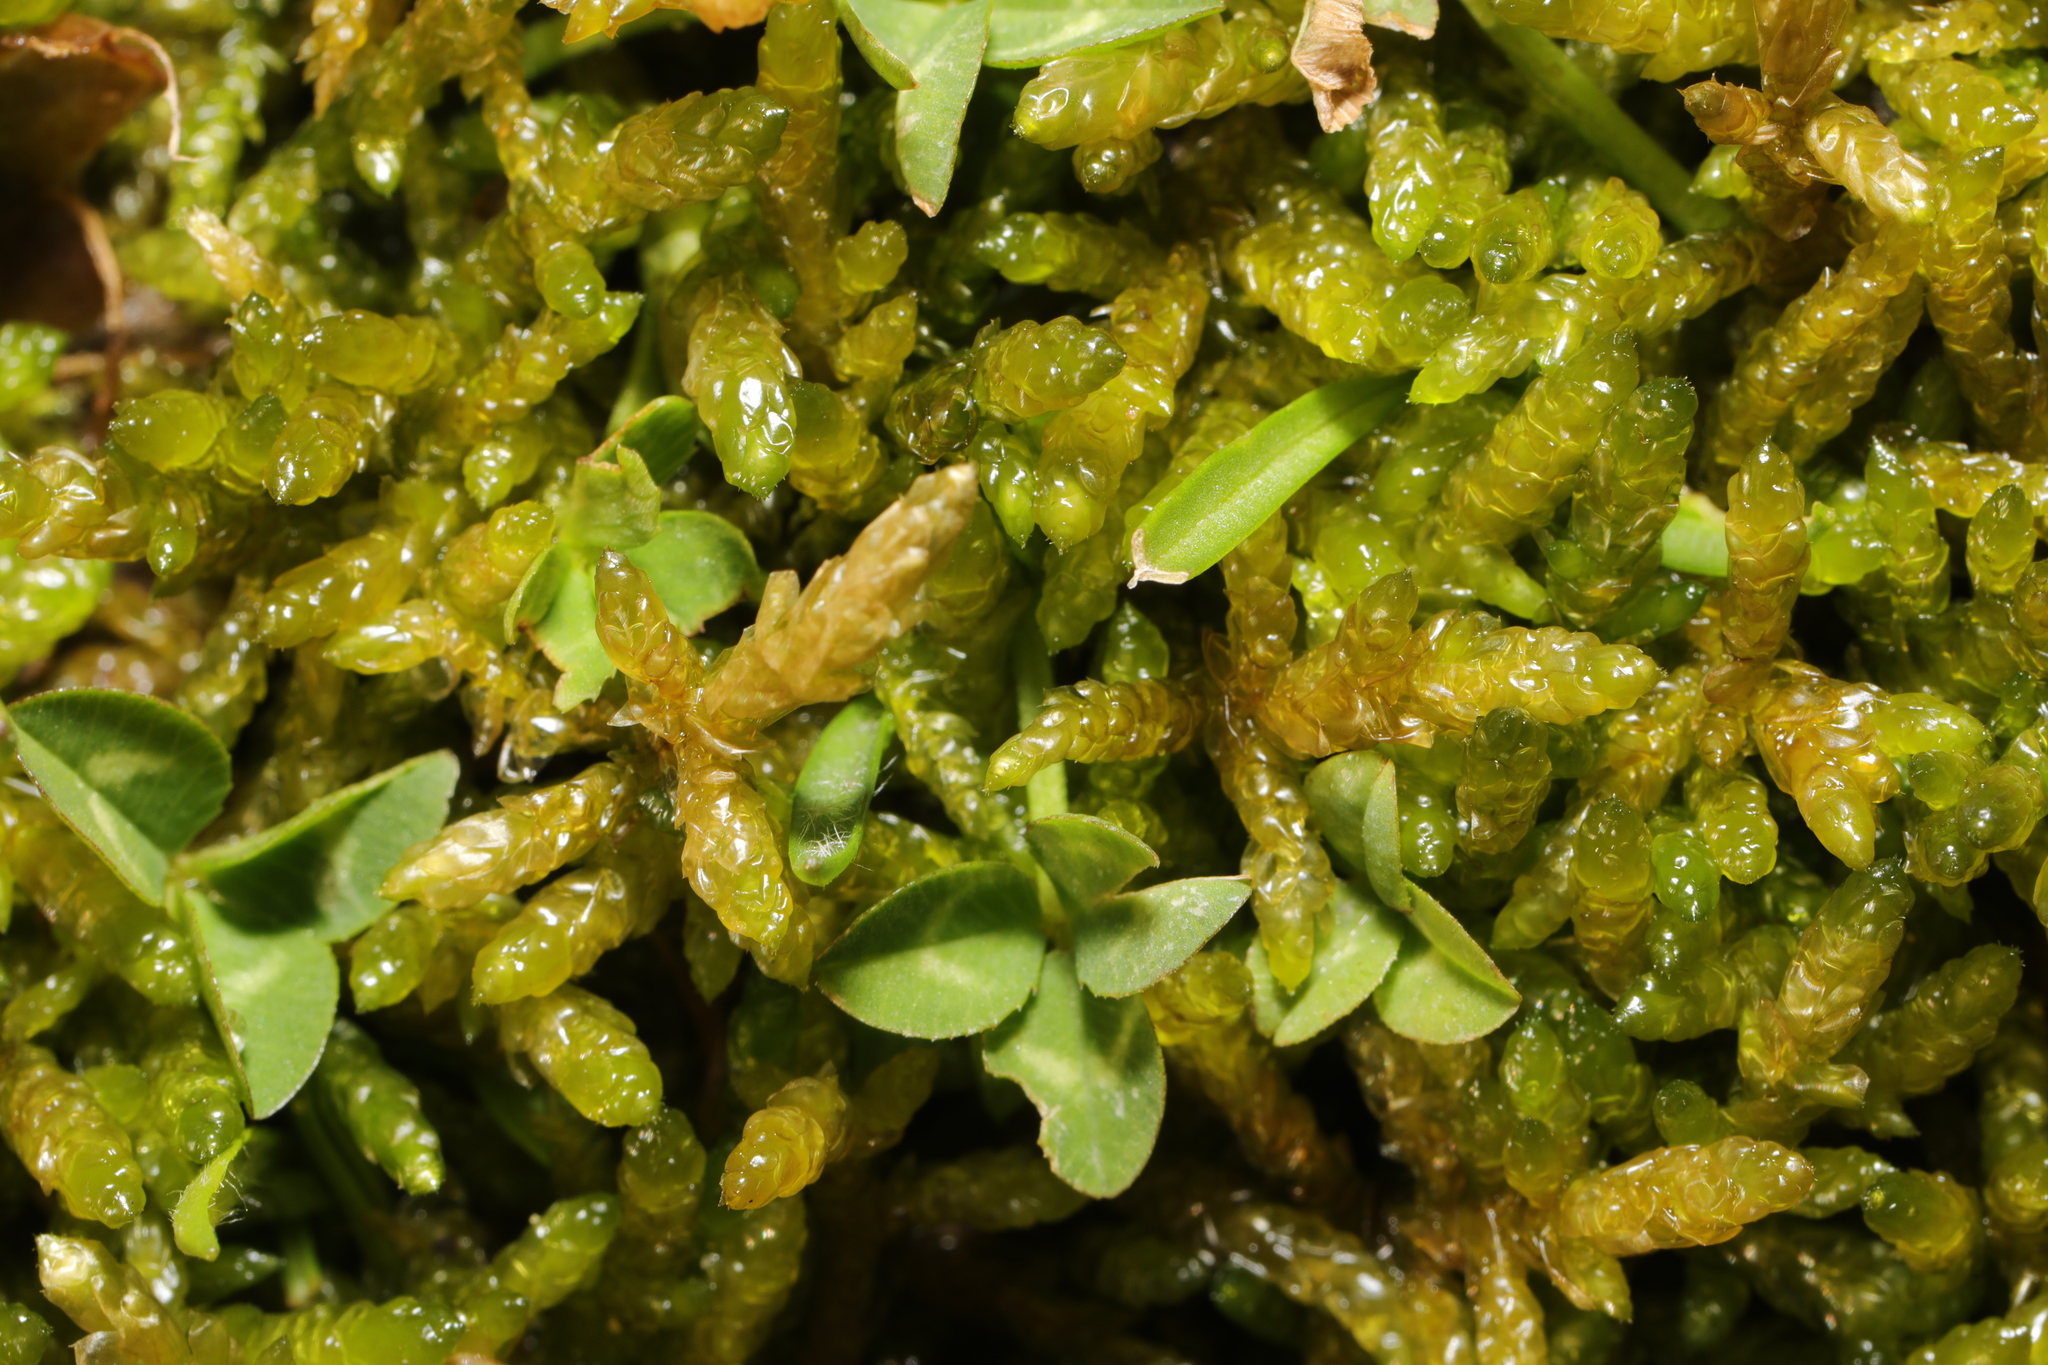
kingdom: Plantae
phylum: Bryophyta
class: Bryopsida
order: Hypnales
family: Brachytheciaceae
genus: Pseudoscleropodium
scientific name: Pseudoscleropodium purum
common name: Neat feather-moss
